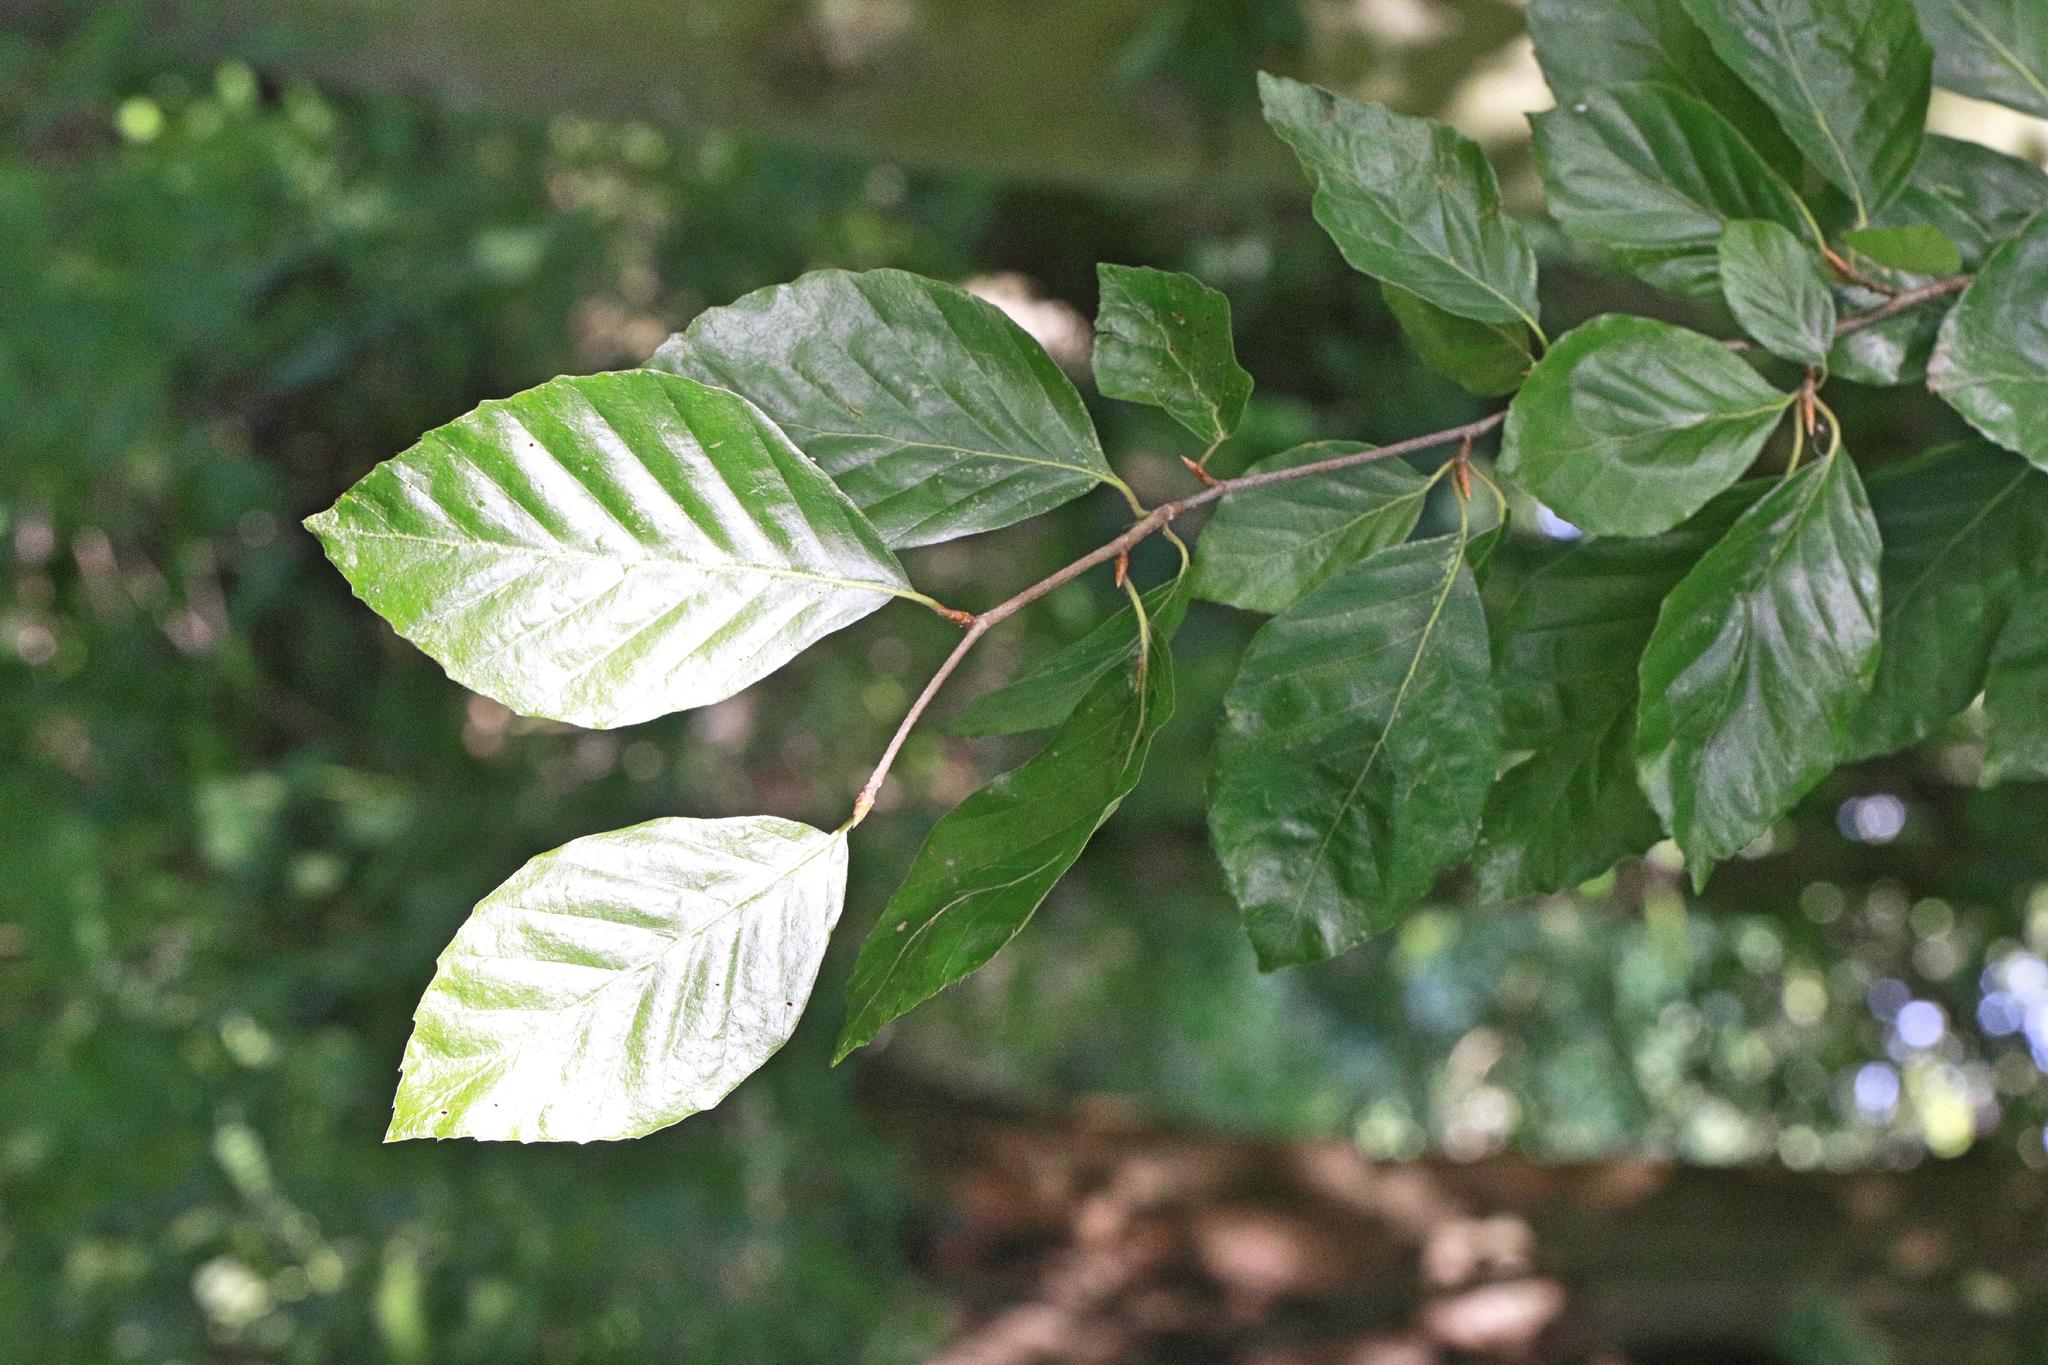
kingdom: Plantae
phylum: Tracheophyta
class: Magnoliopsida
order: Fagales
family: Fagaceae
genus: Fagus
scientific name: Fagus sylvatica
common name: Beech
